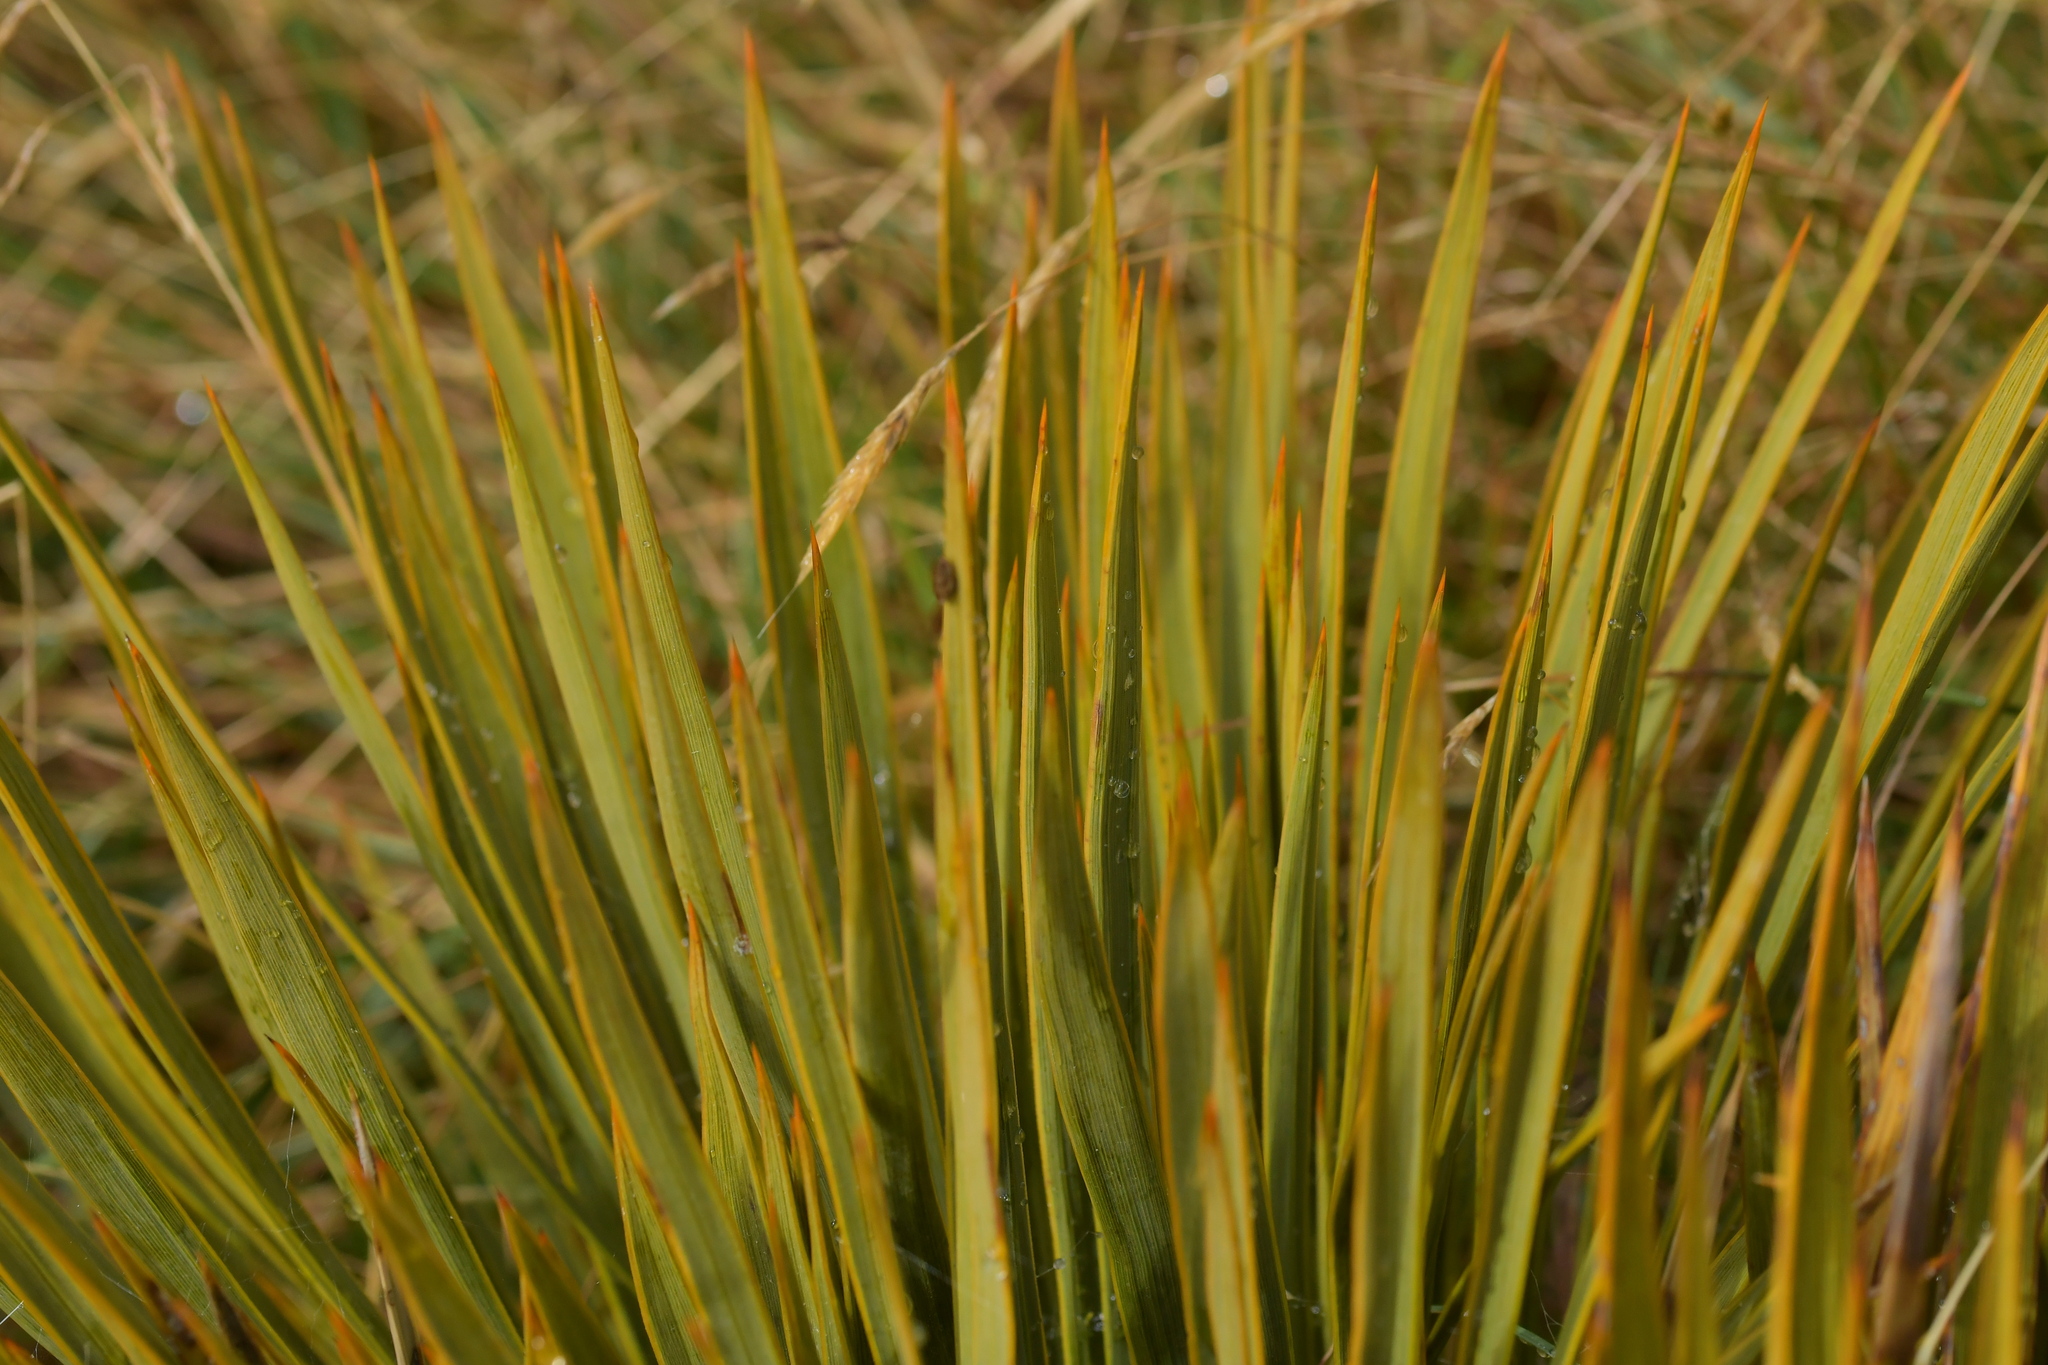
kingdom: Plantae
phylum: Tracheophyta
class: Magnoliopsida
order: Apiales
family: Apiaceae
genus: Aciphylla
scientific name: Aciphylla aurea
